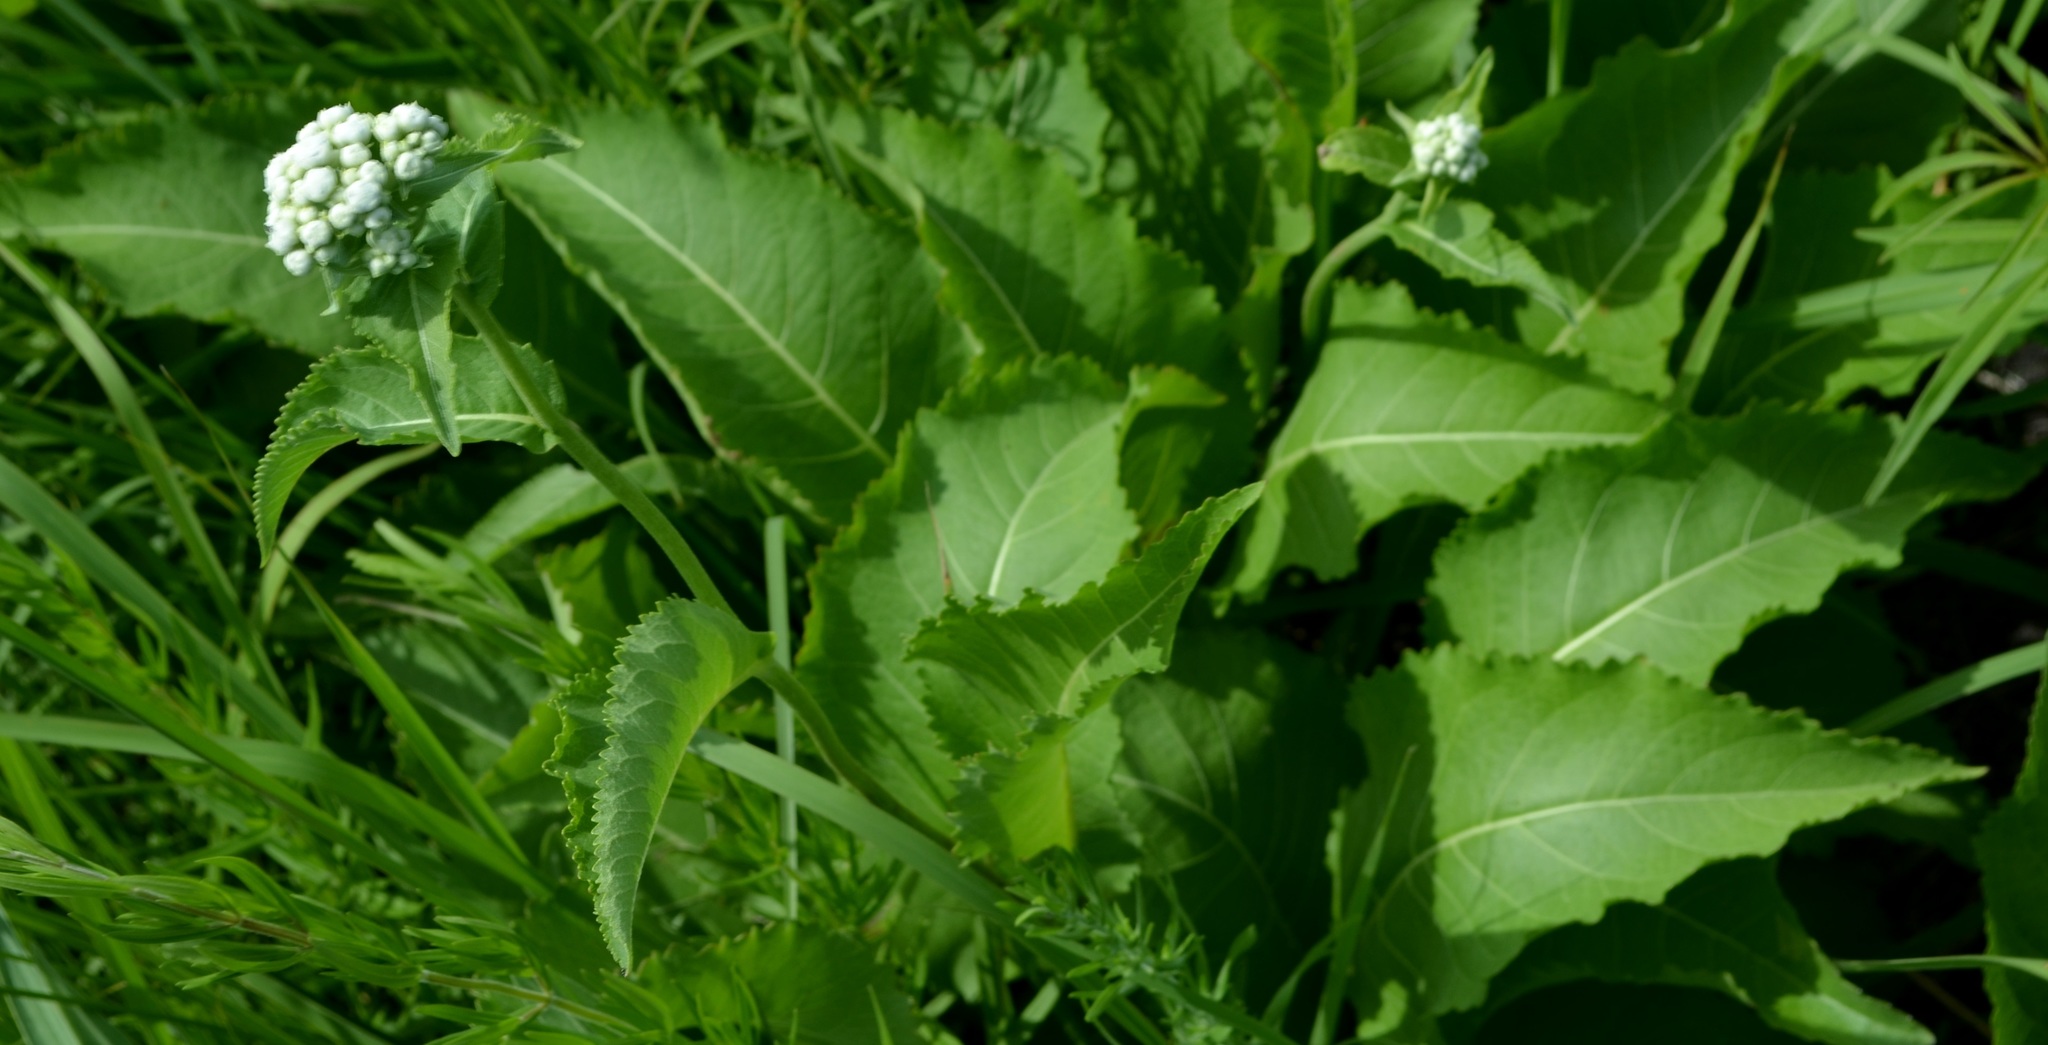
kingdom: Plantae
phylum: Tracheophyta
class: Magnoliopsida
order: Asterales
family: Asteraceae
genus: Parthenium
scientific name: Parthenium integrifolium
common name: American feverfew
